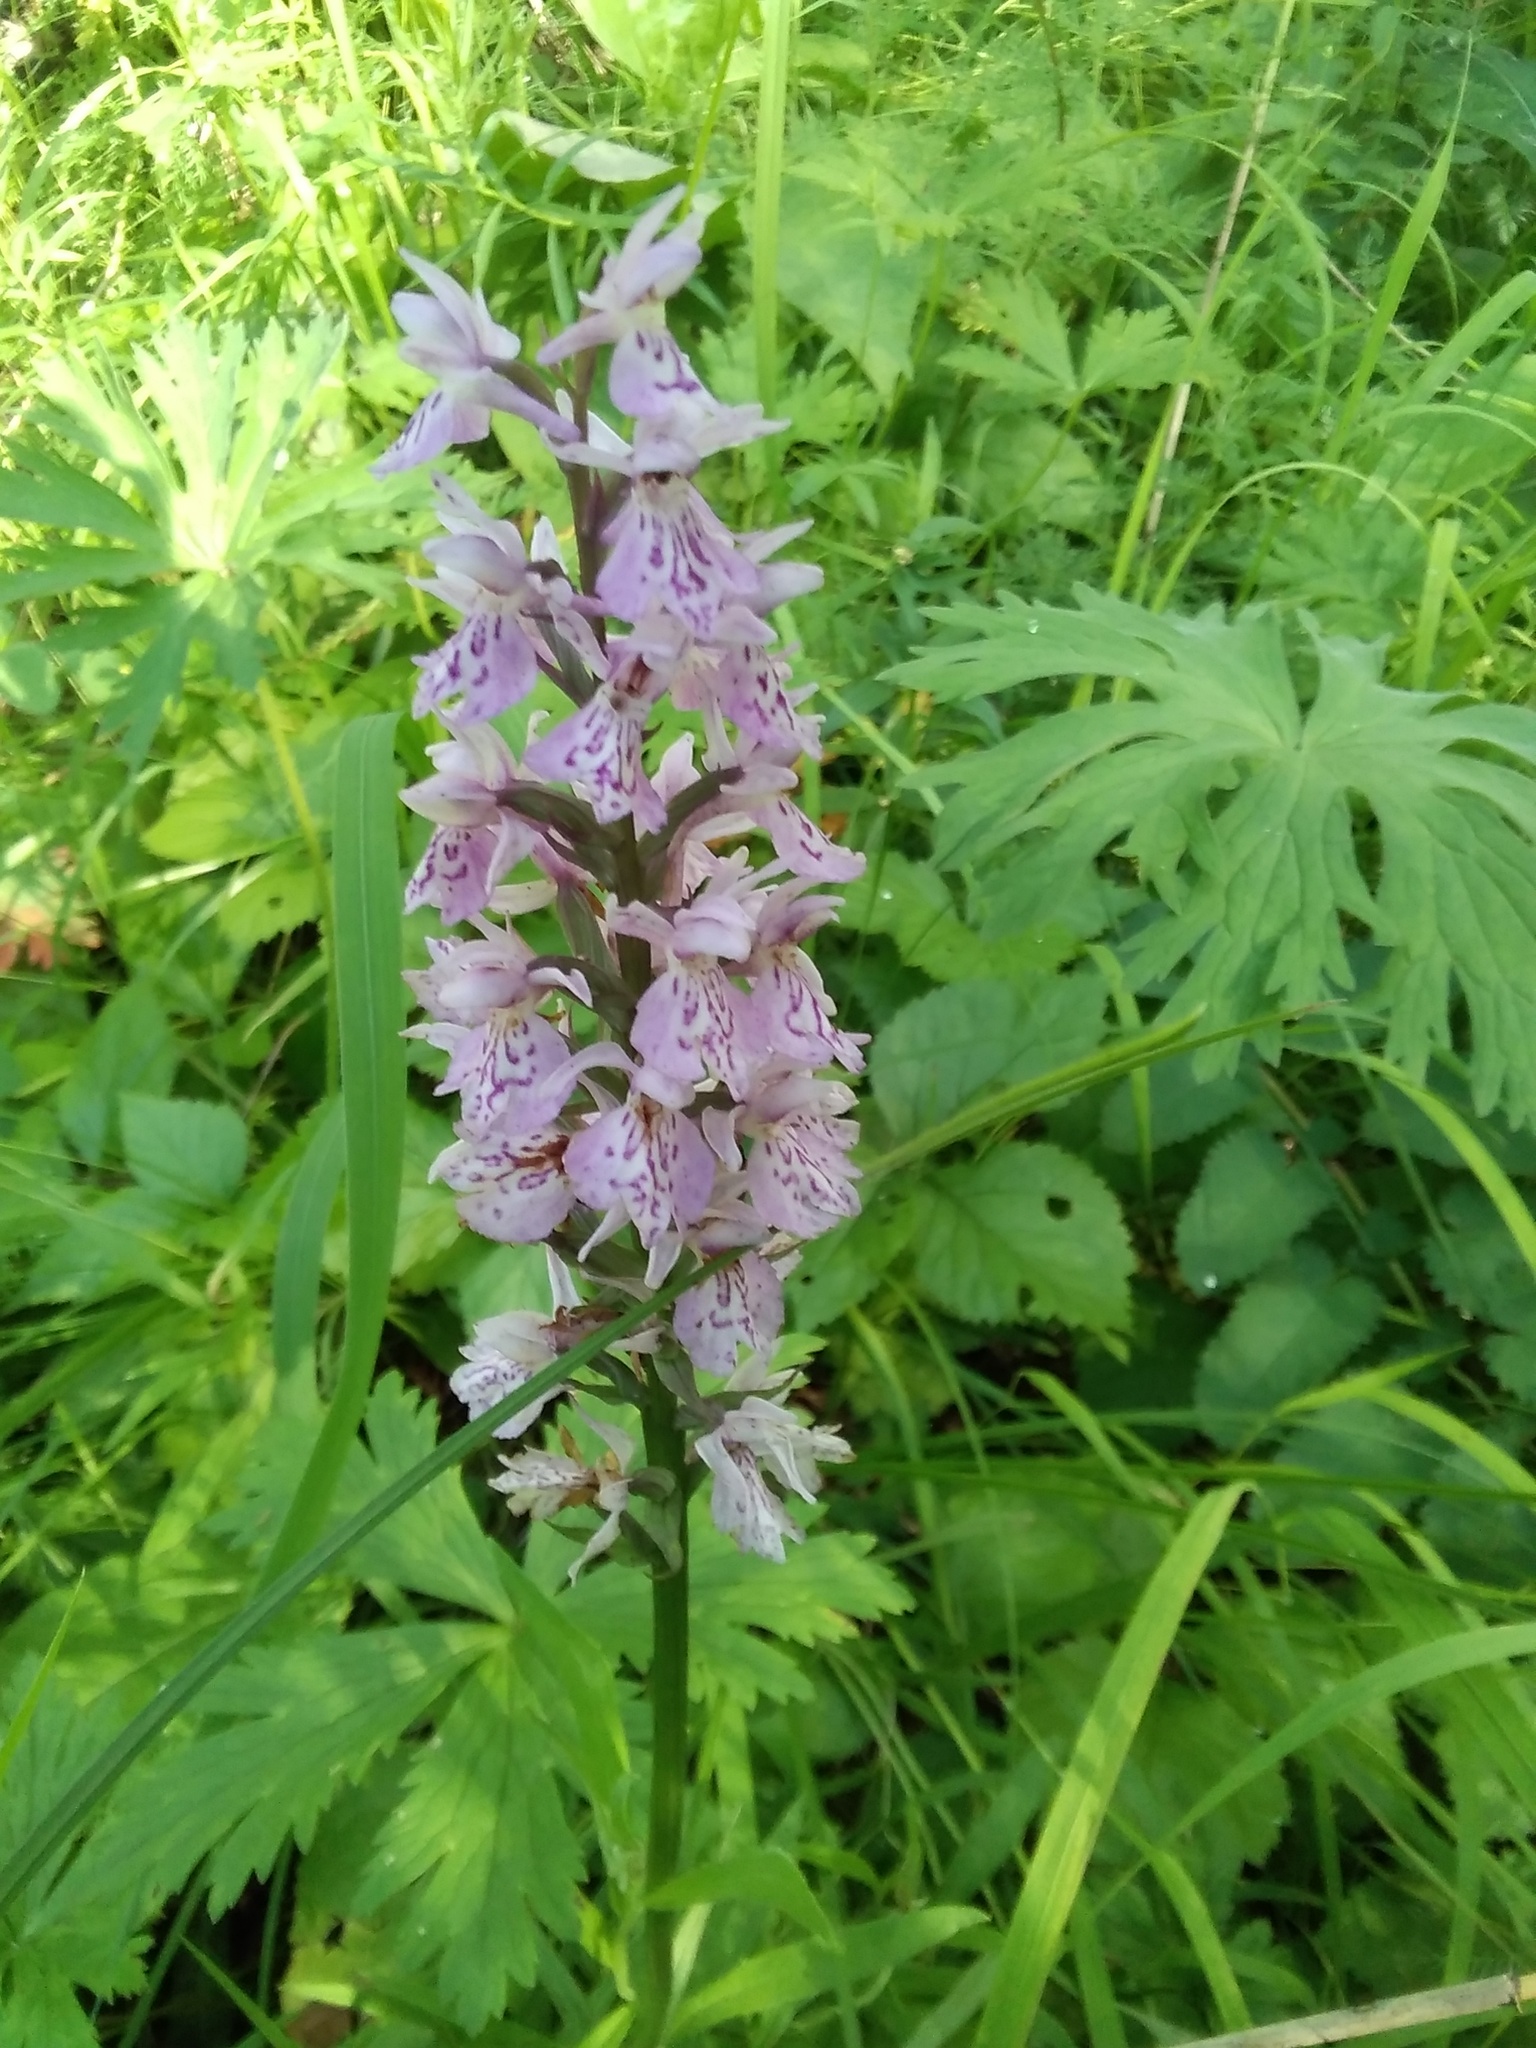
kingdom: Plantae
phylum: Tracheophyta
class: Liliopsida
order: Asparagales
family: Orchidaceae
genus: Dactylorhiza
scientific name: Dactylorhiza maculata
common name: Heath spotted-orchid
